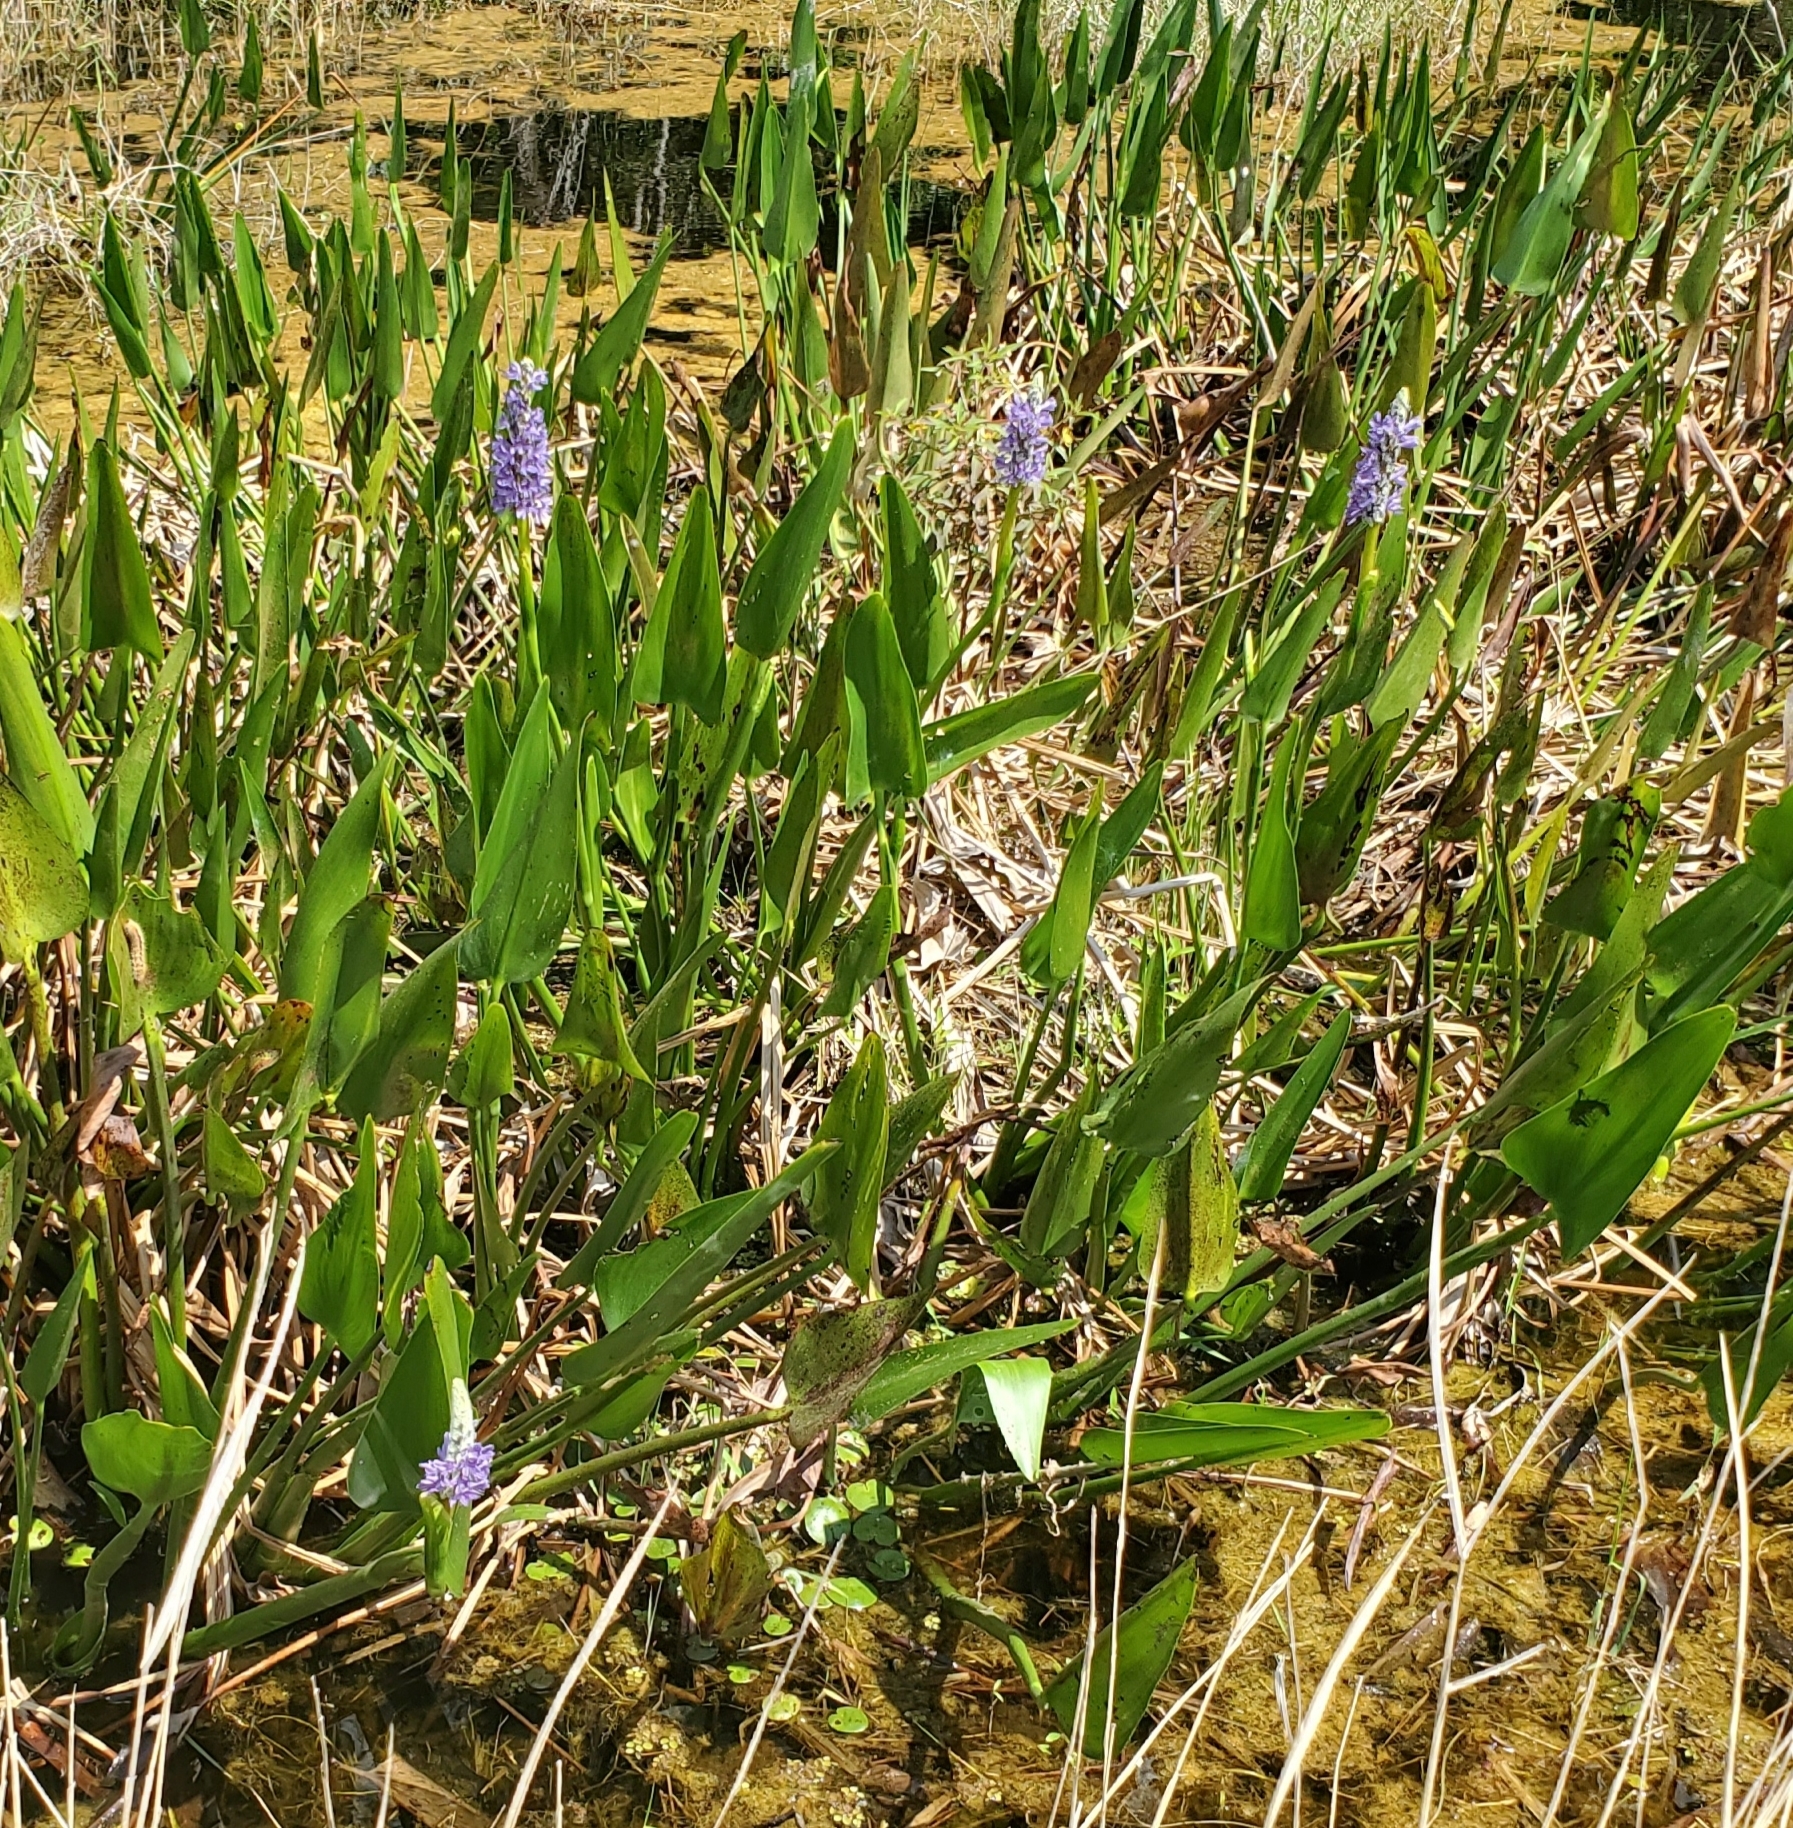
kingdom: Plantae
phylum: Tracheophyta
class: Liliopsida
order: Commelinales
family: Pontederiaceae
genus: Pontederia
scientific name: Pontederia cordata
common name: Pickerelweed
